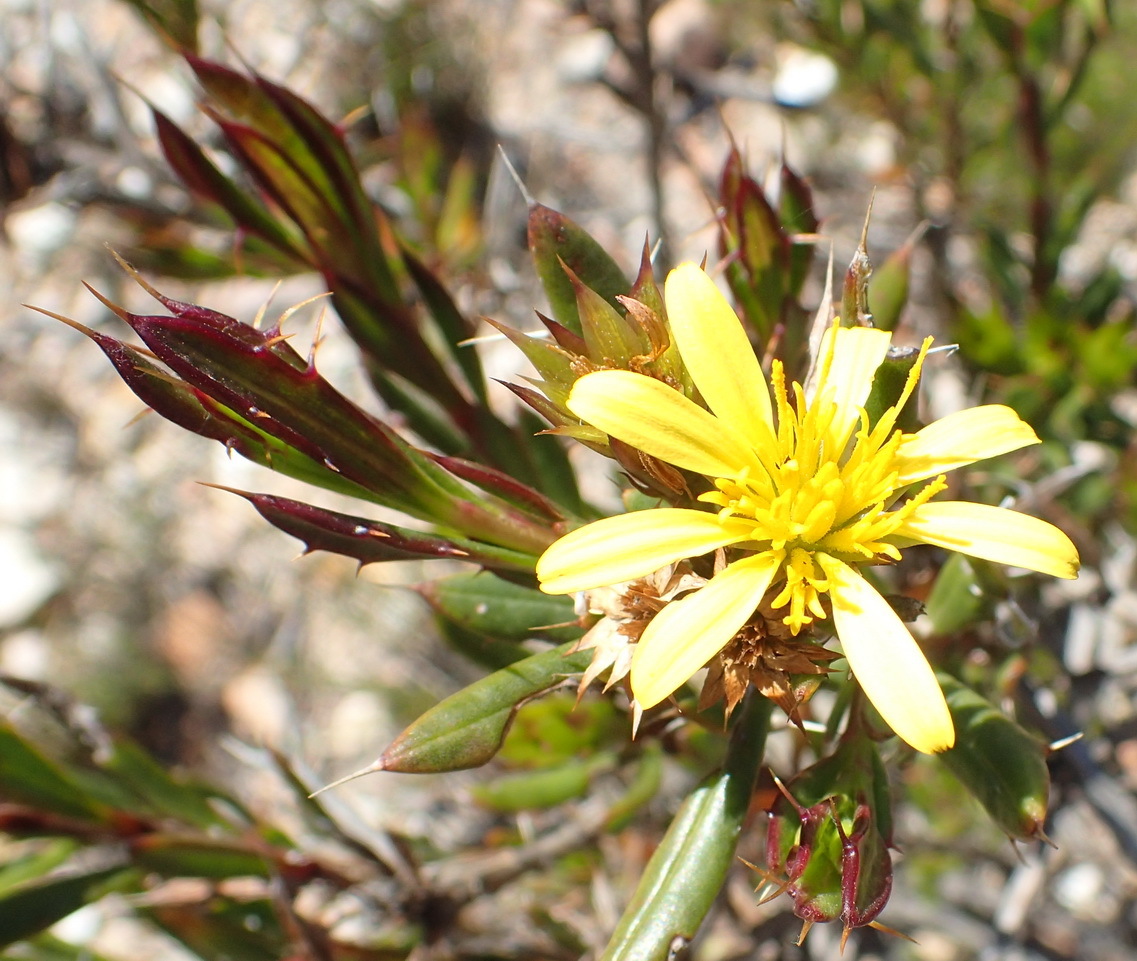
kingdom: Plantae
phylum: Tracheophyta
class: Magnoliopsida
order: Asterales
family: Asteraceae
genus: Cullumia
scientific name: Cullumia bisulca
